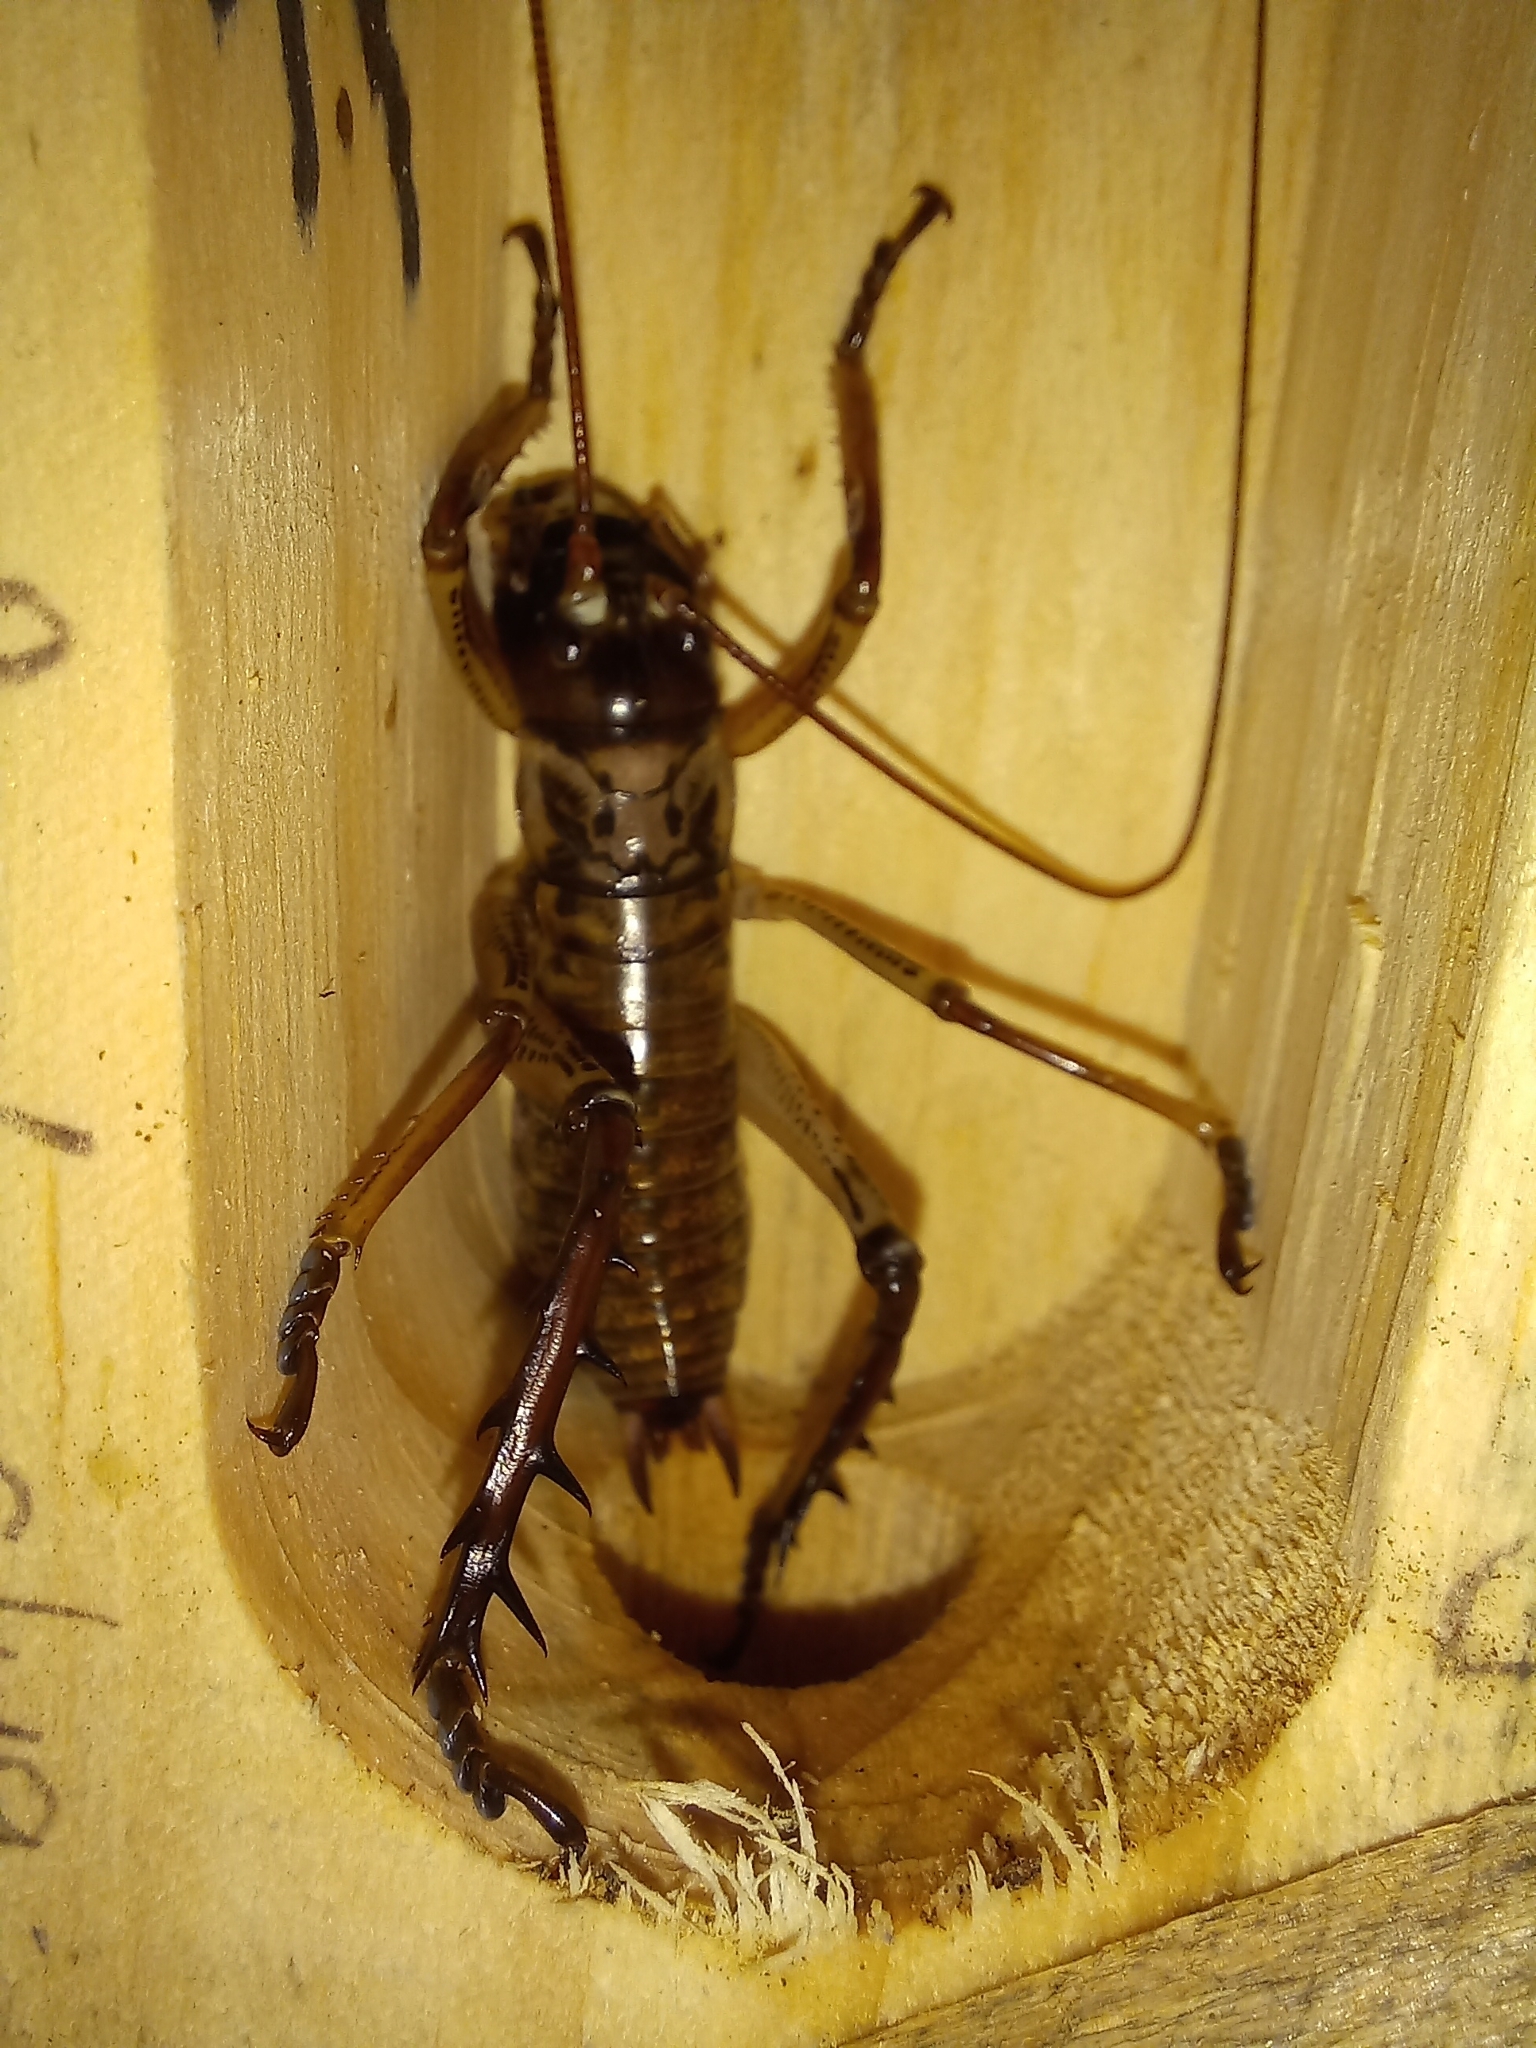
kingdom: Animalia
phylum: Arthropoda
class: Insecta
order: Orthoptera
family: Anostostomatidae
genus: Hemideina
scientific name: Hemideina thoracica
